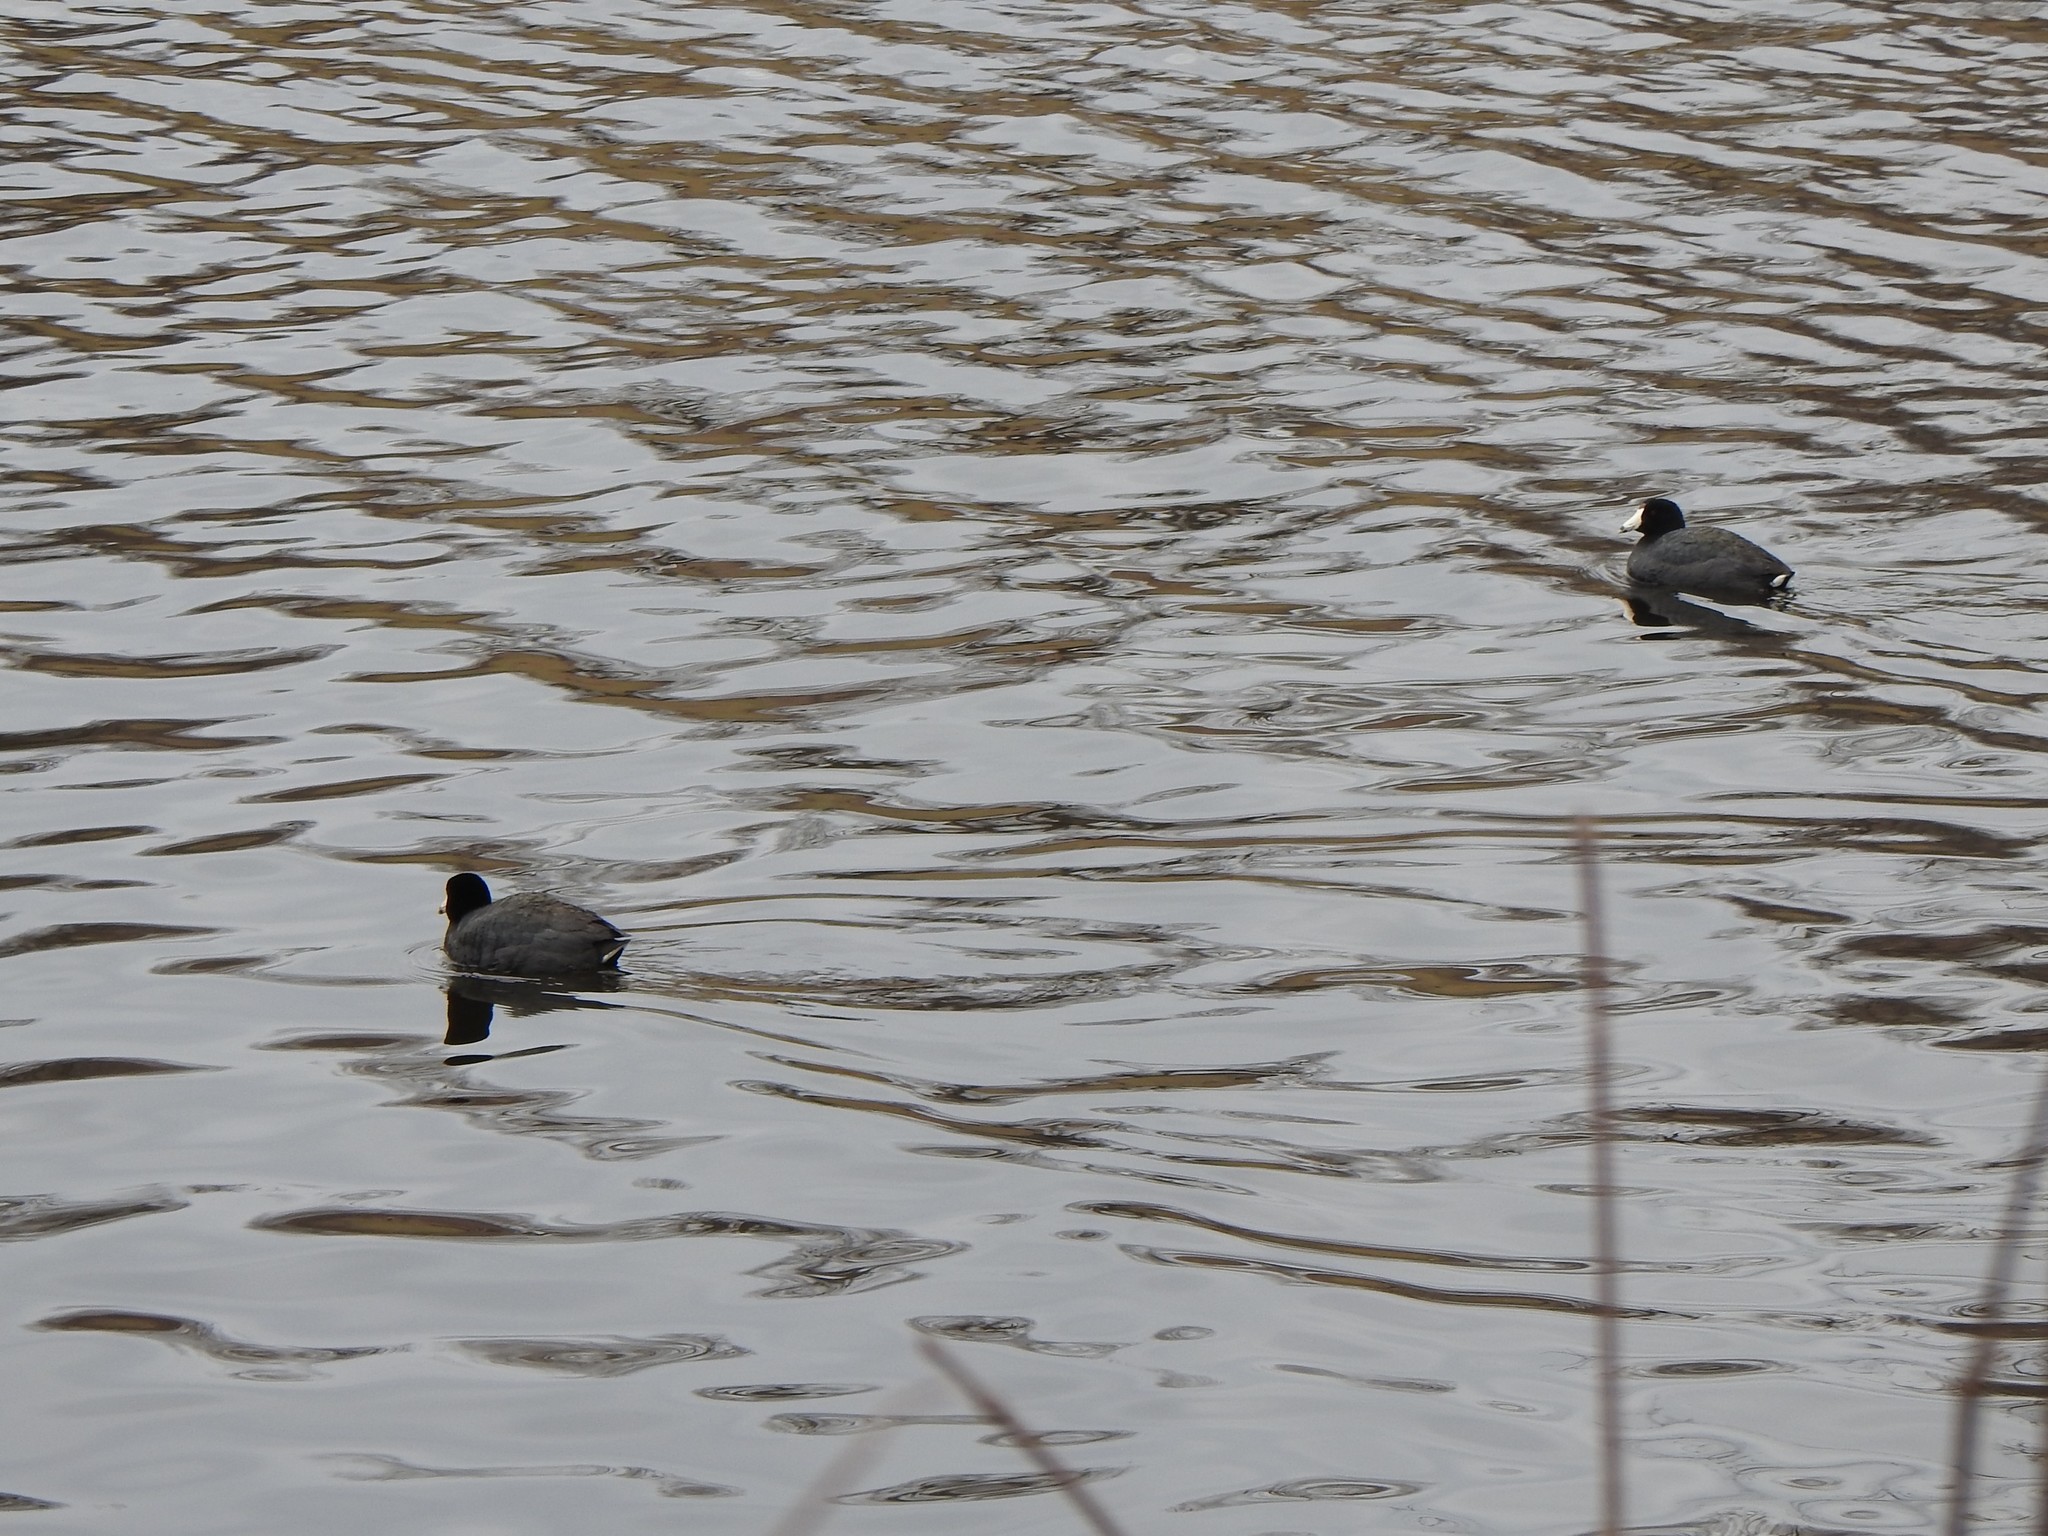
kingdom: Animalia
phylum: Chordata
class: Aves
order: Gruiformes
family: Rallidae
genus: Fulica
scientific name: Fulica americana
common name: American coot
